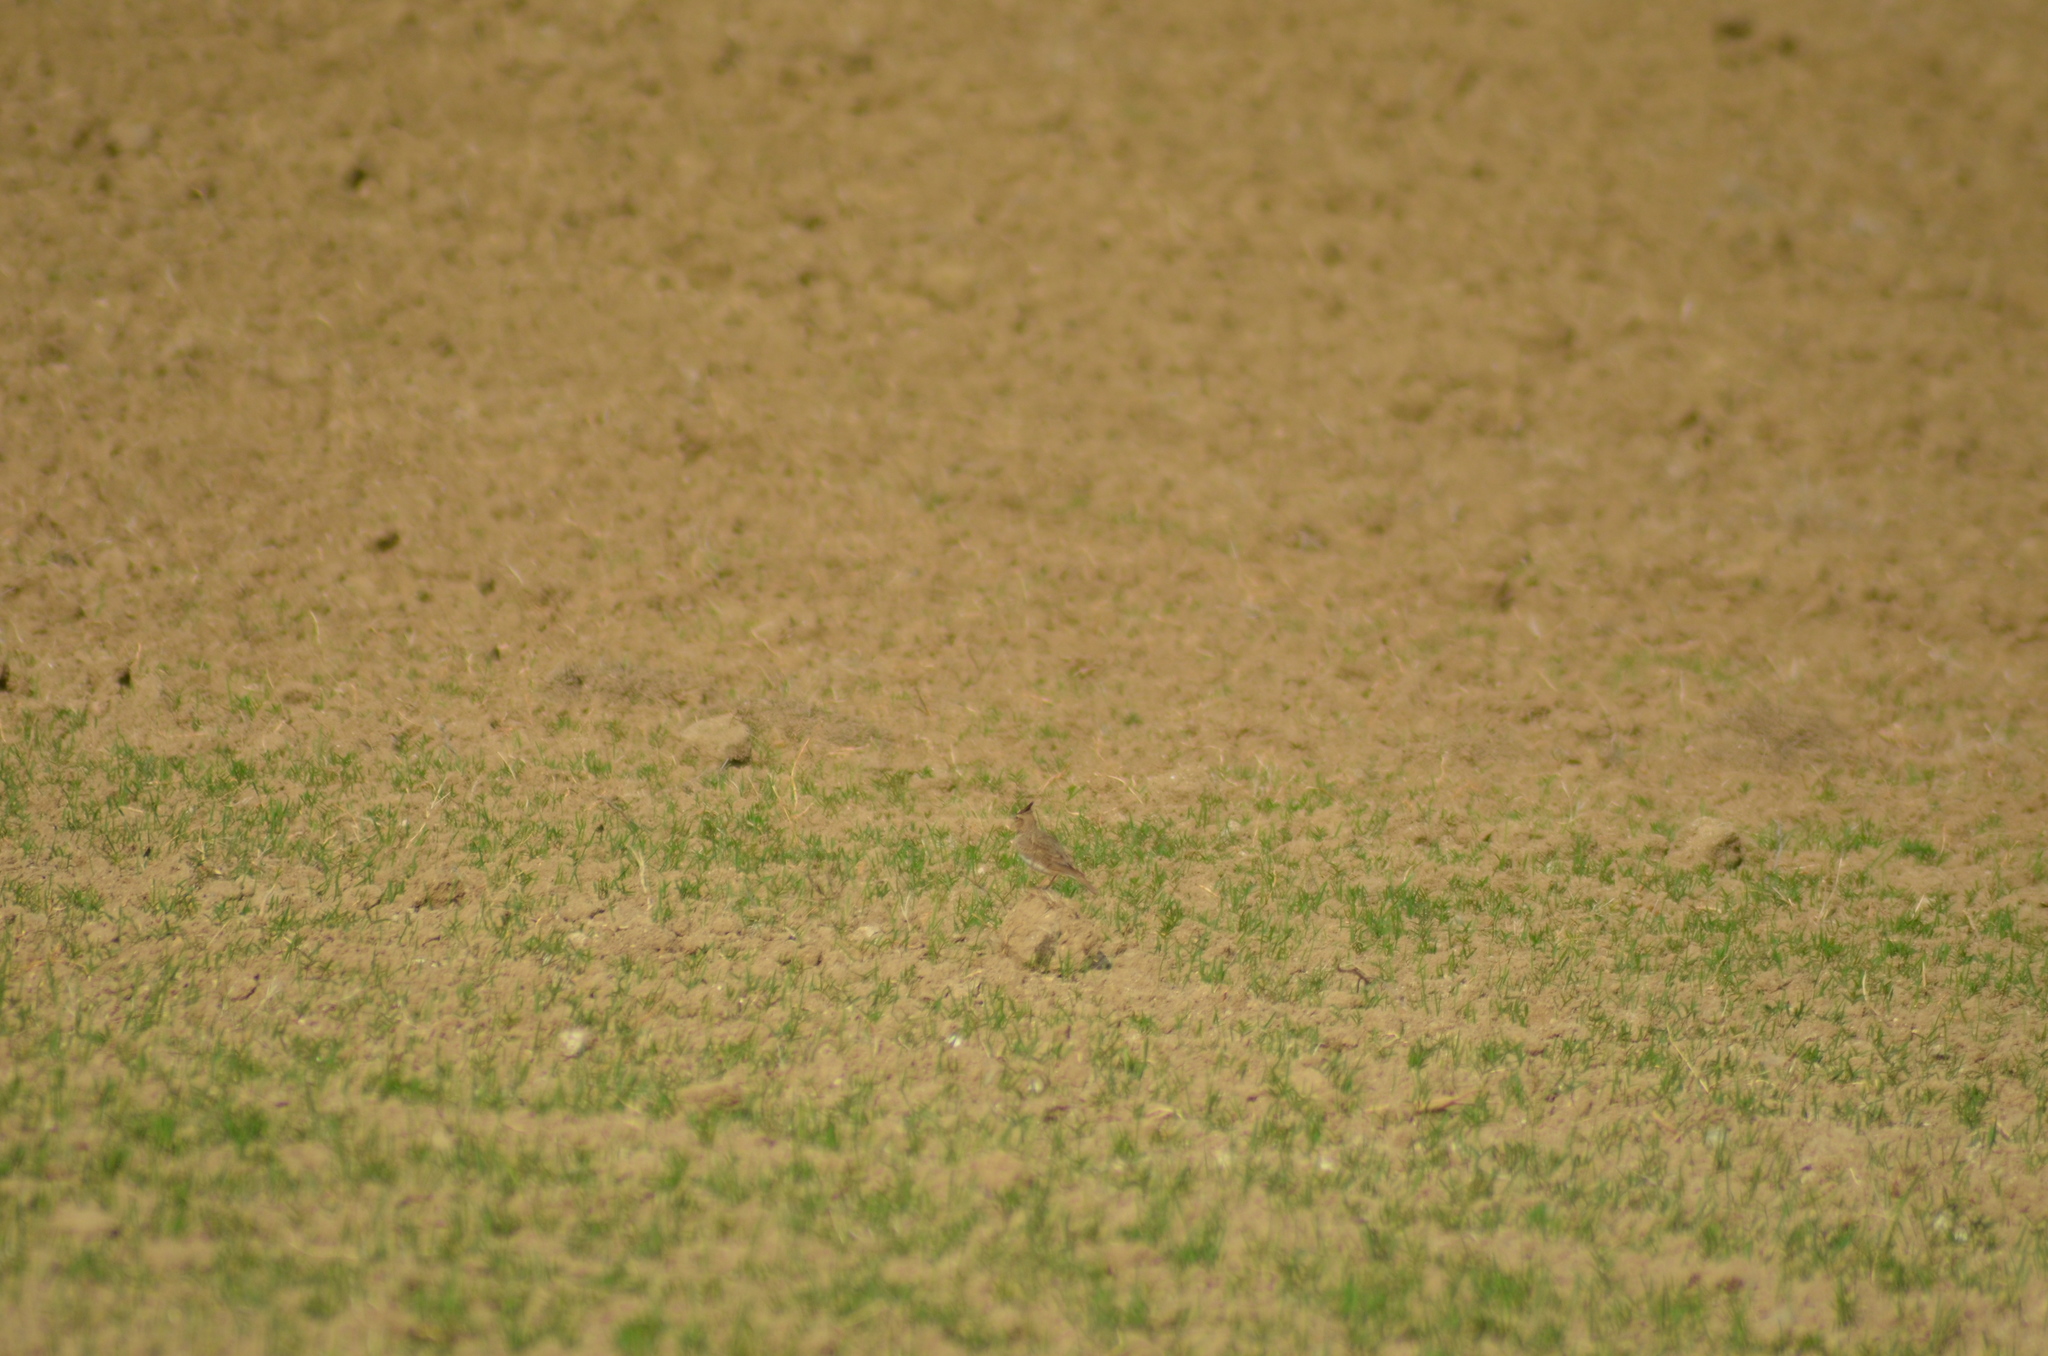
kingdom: Animalia
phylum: Chordata
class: Aves
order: Passeriformes
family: Alaudidae
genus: Galerida
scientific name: Galerida cristata
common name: Crested lark
